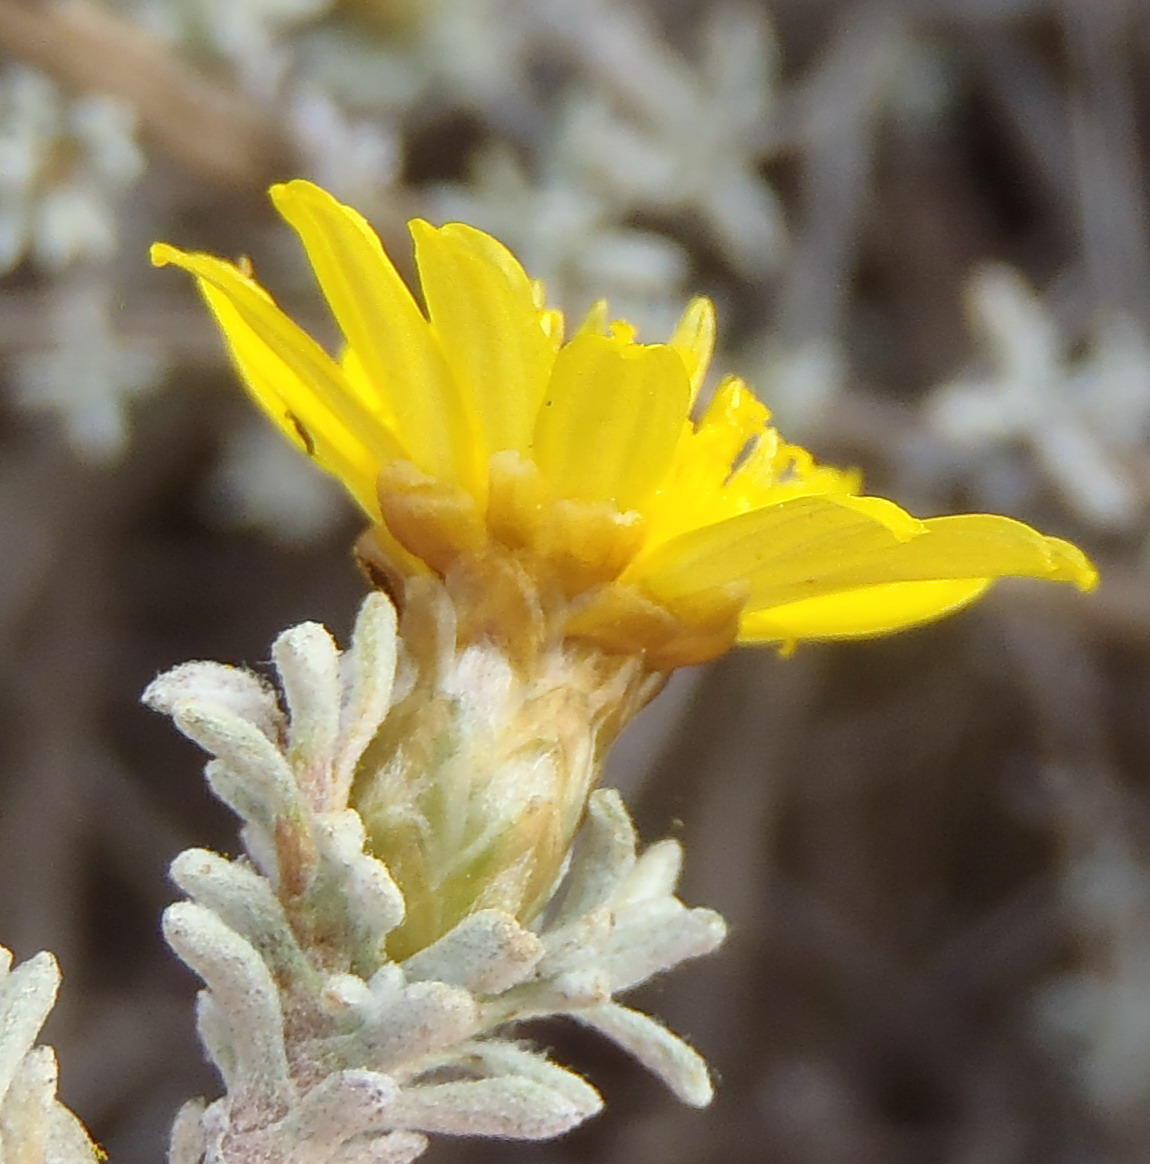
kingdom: Plantae
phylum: Tracheophyta
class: Magnoliopsida
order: Asterales
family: Asteraceae
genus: Oedera
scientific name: Oedera humilis
